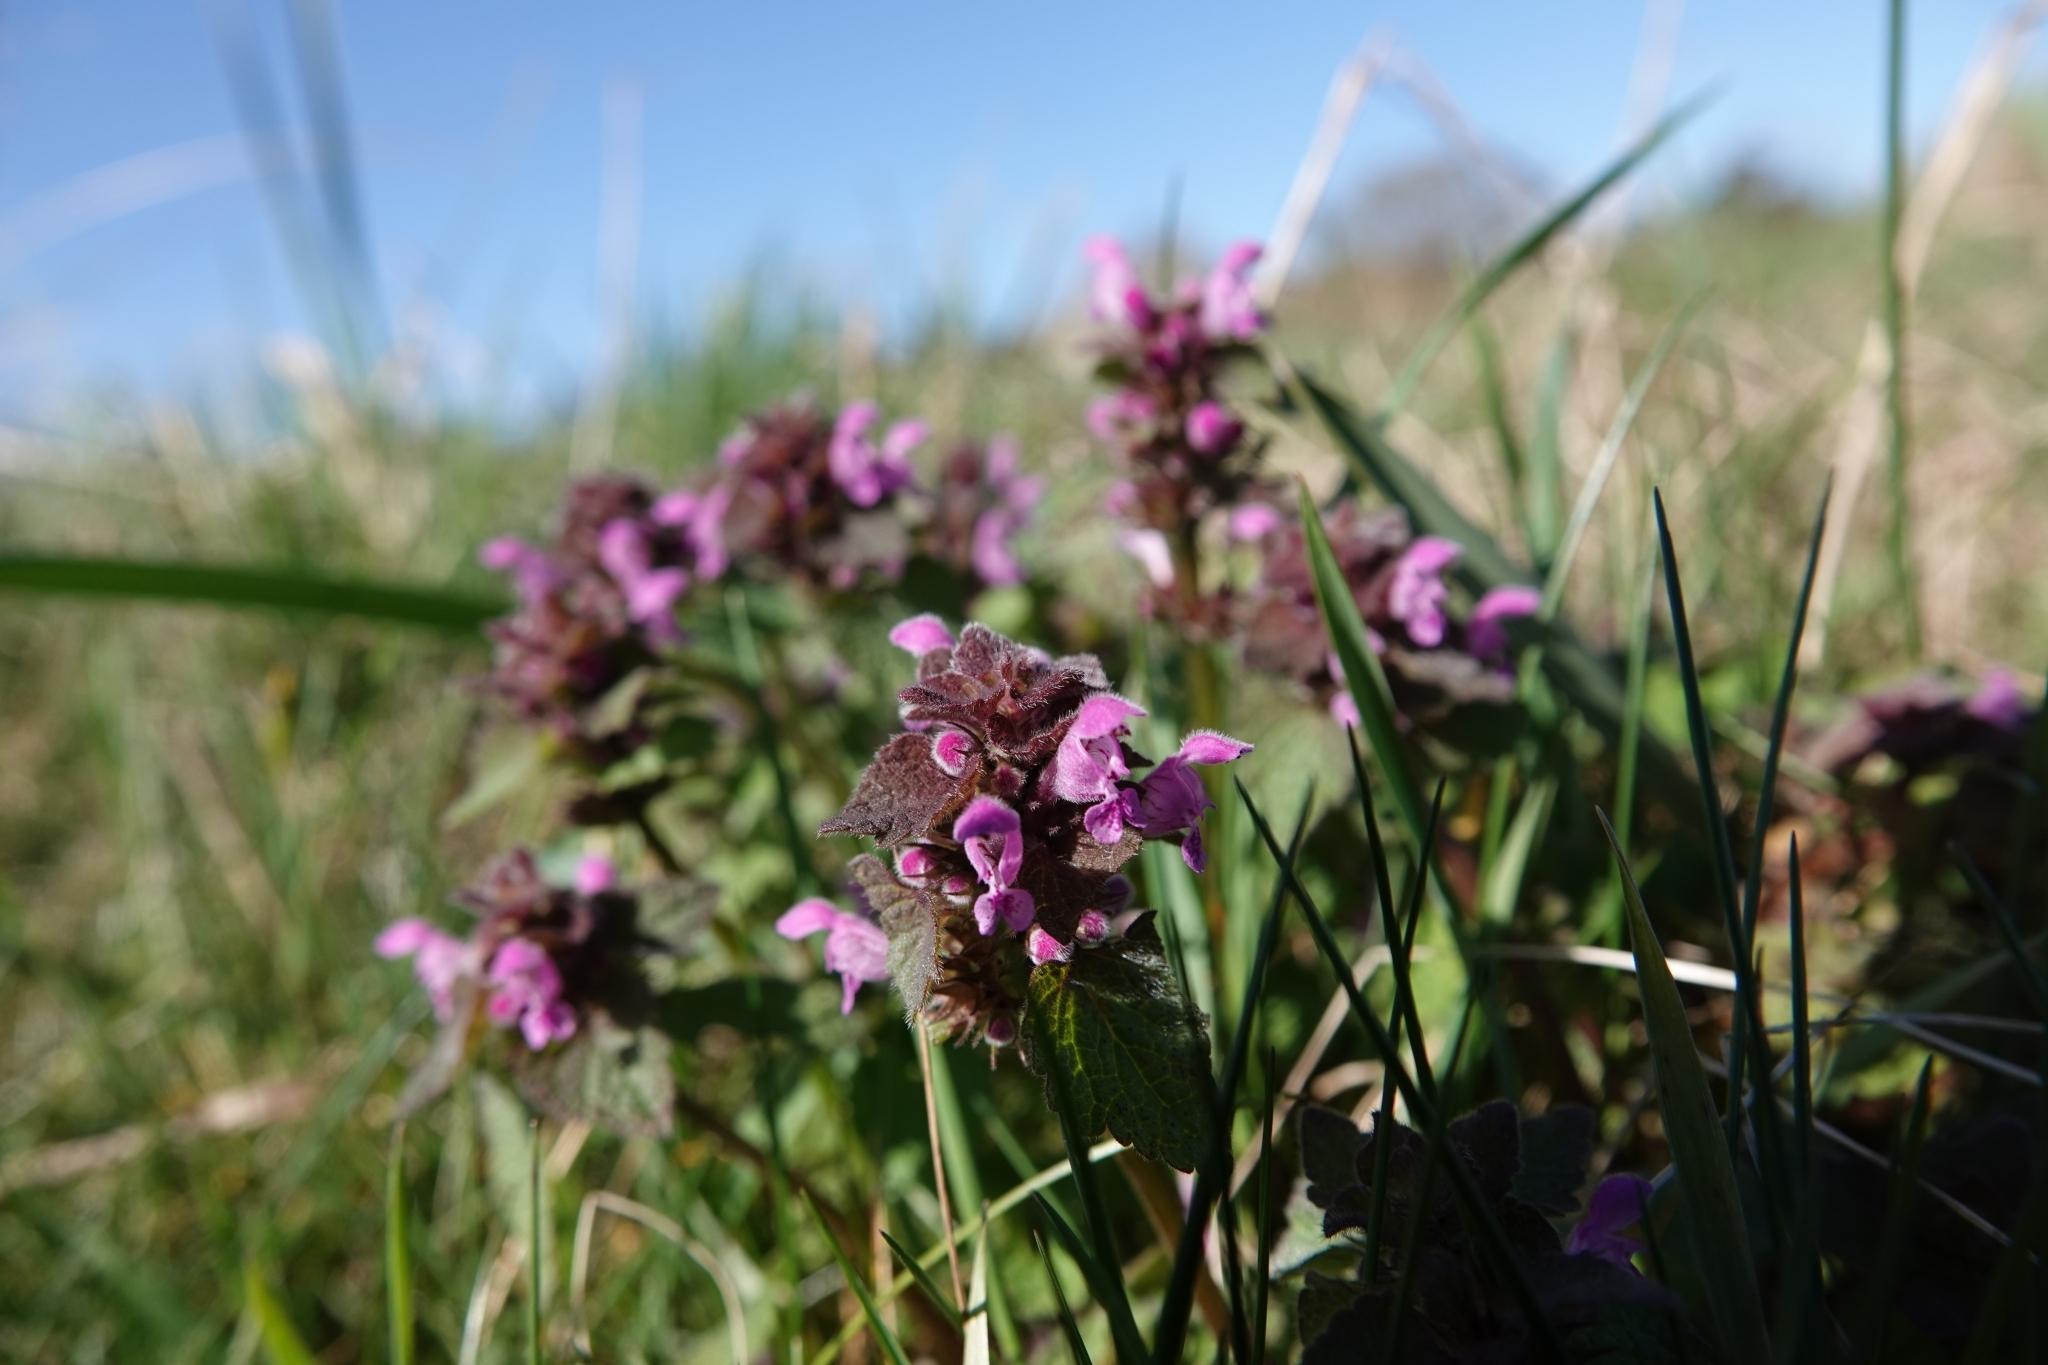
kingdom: Plantae
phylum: Tracheophyta
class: Magnoliopsida
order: Lamiales
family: Lamiaceae
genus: Lamium
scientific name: Lamium purpureum
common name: Red dead-nettle
